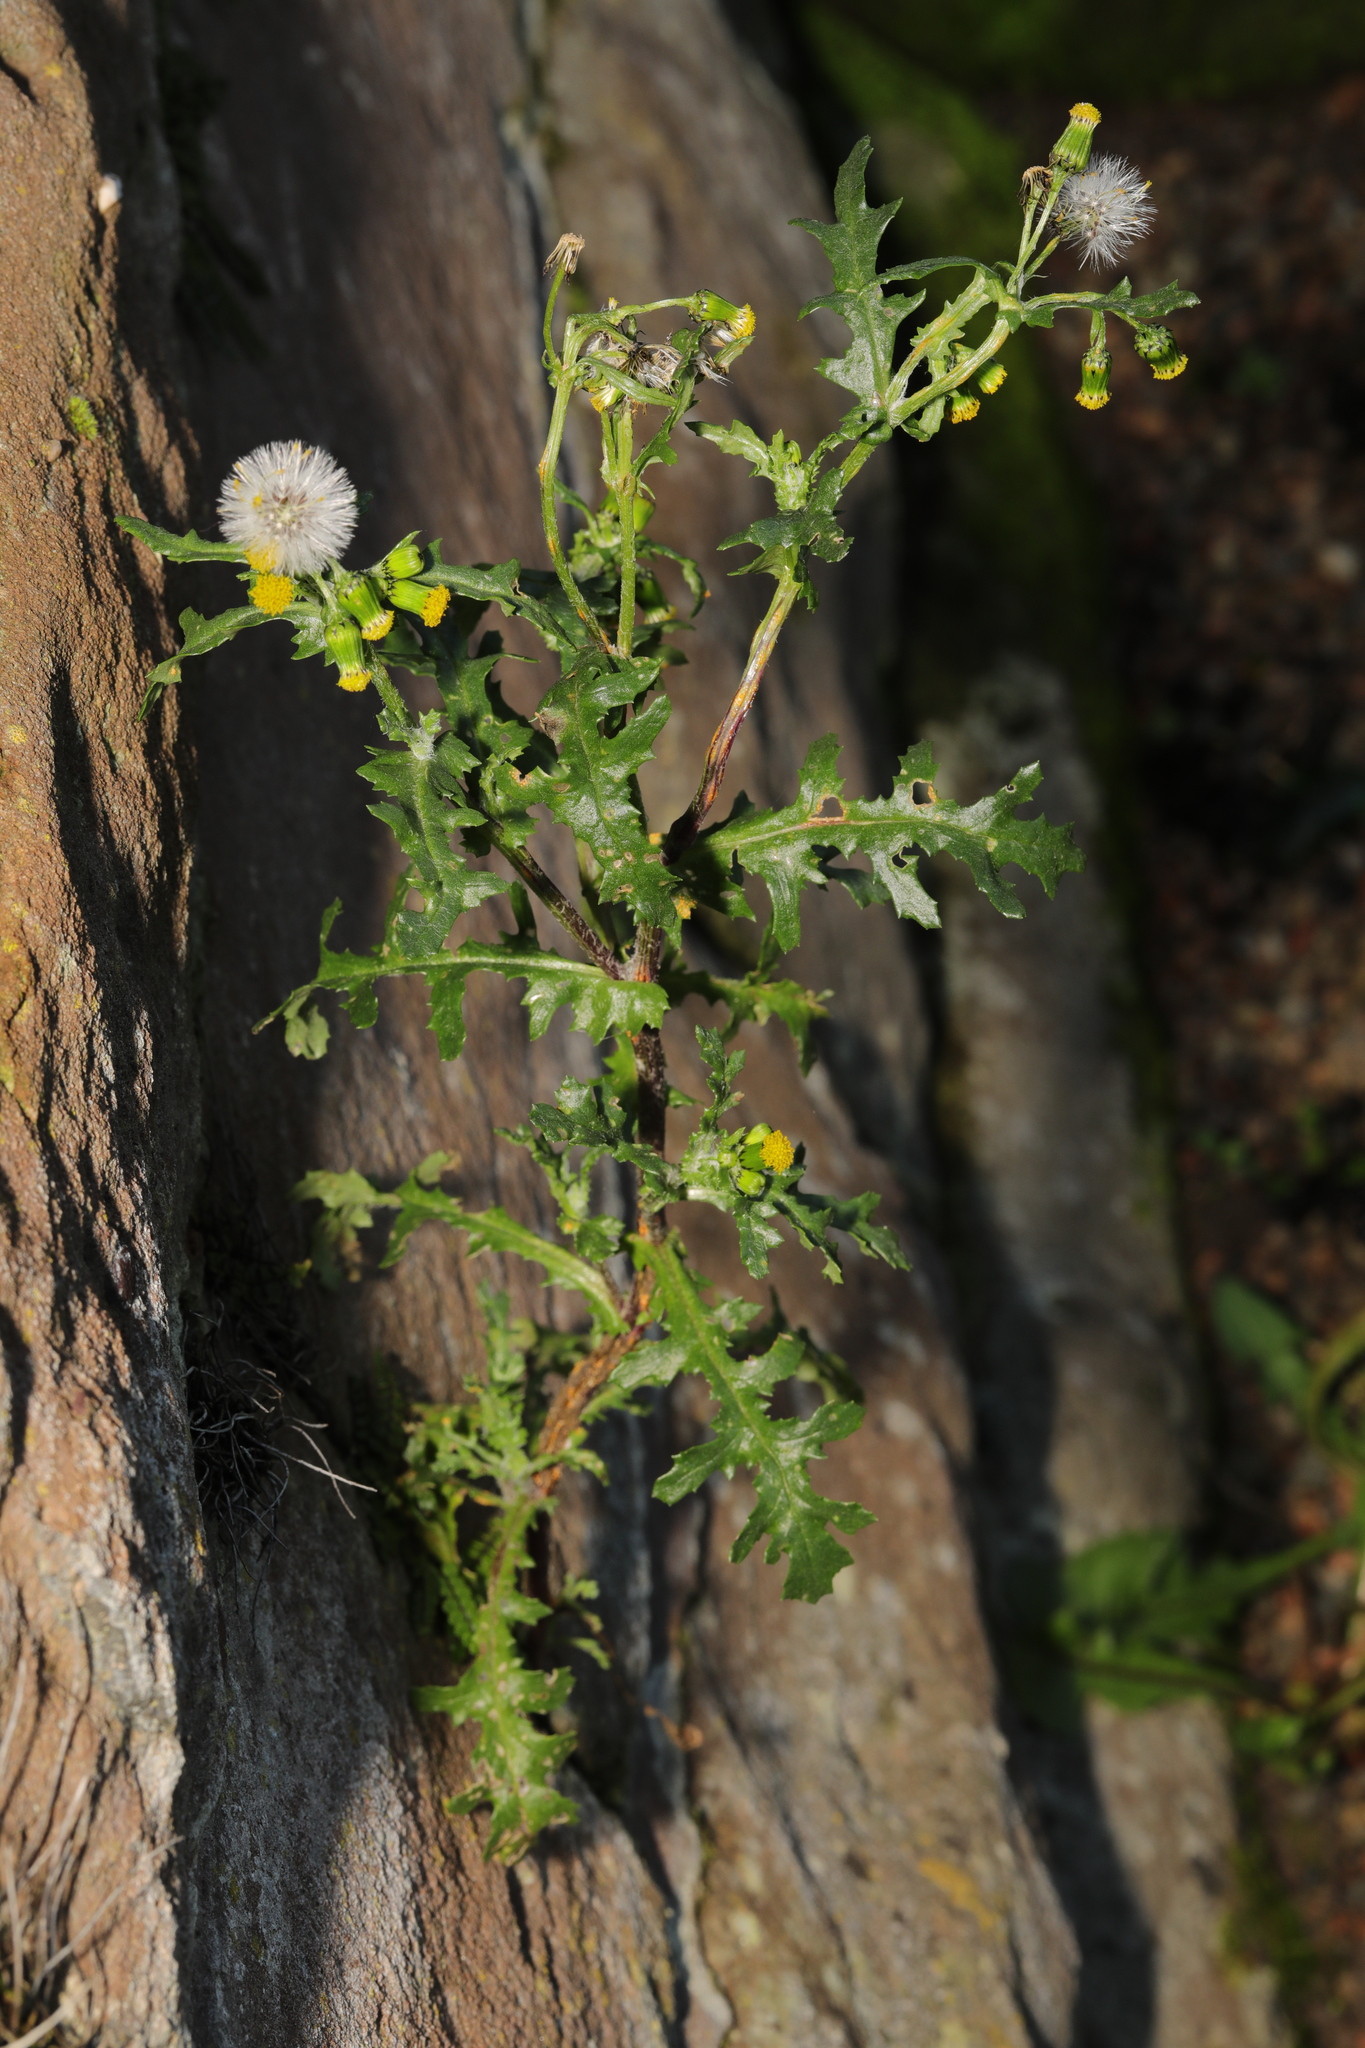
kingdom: Plantae
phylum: Tracheophyta
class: Magnoliopsida
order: Asterales
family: Asteraceae
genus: Senecio
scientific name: Senecio vulgaris
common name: Old-man-in-the-spring
